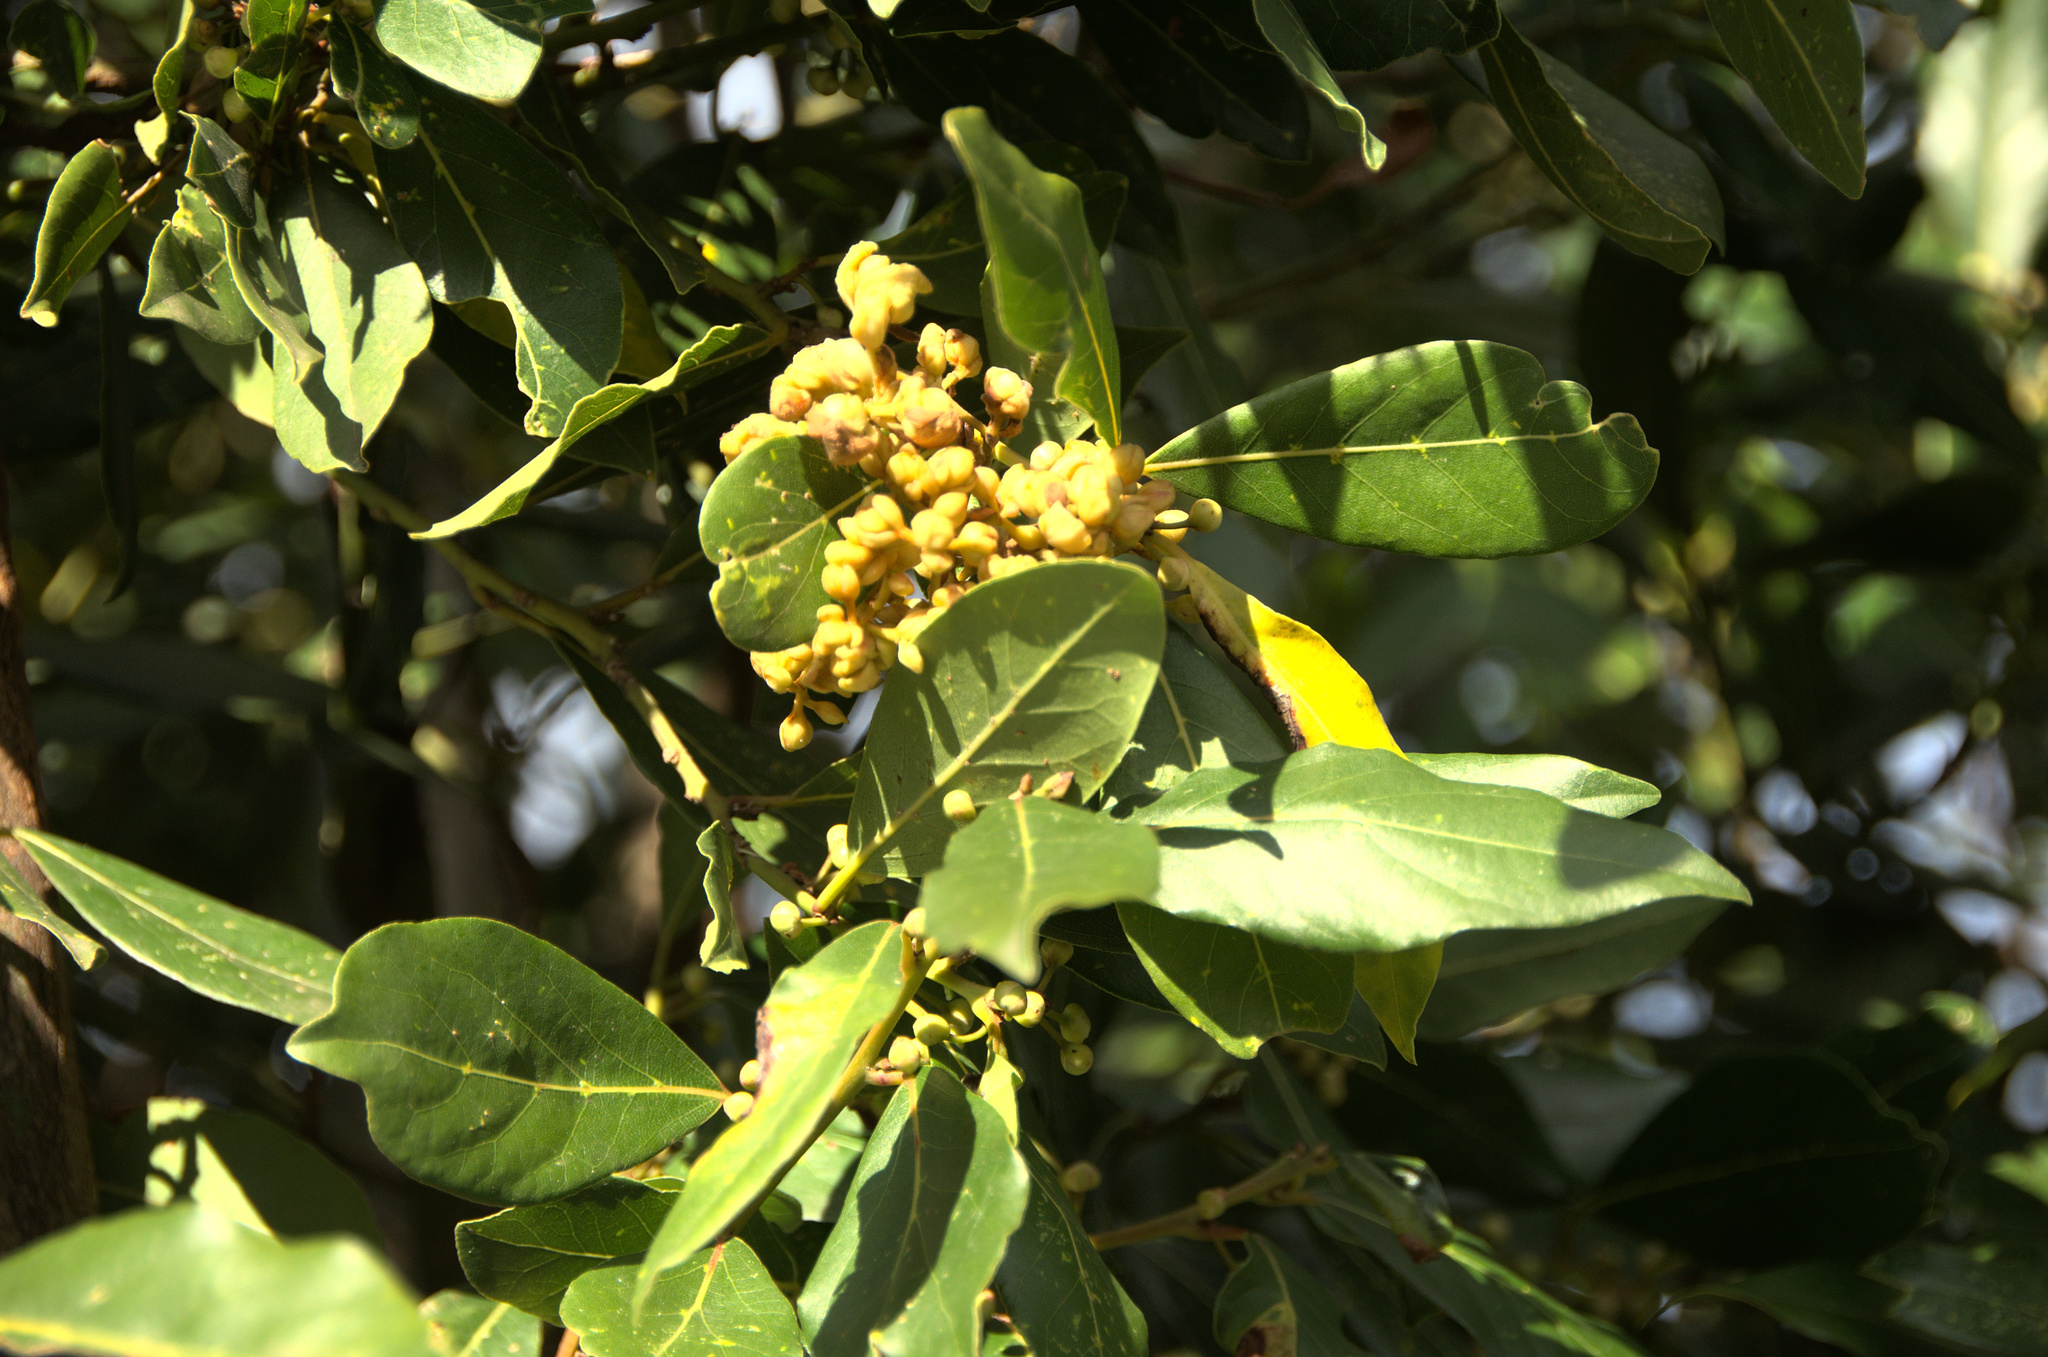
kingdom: Plantae
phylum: Tracheophyta
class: Magnoliopsida
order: Laurales
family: Lauraceae
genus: Laurus
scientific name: Laurus nobilis
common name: Bay
